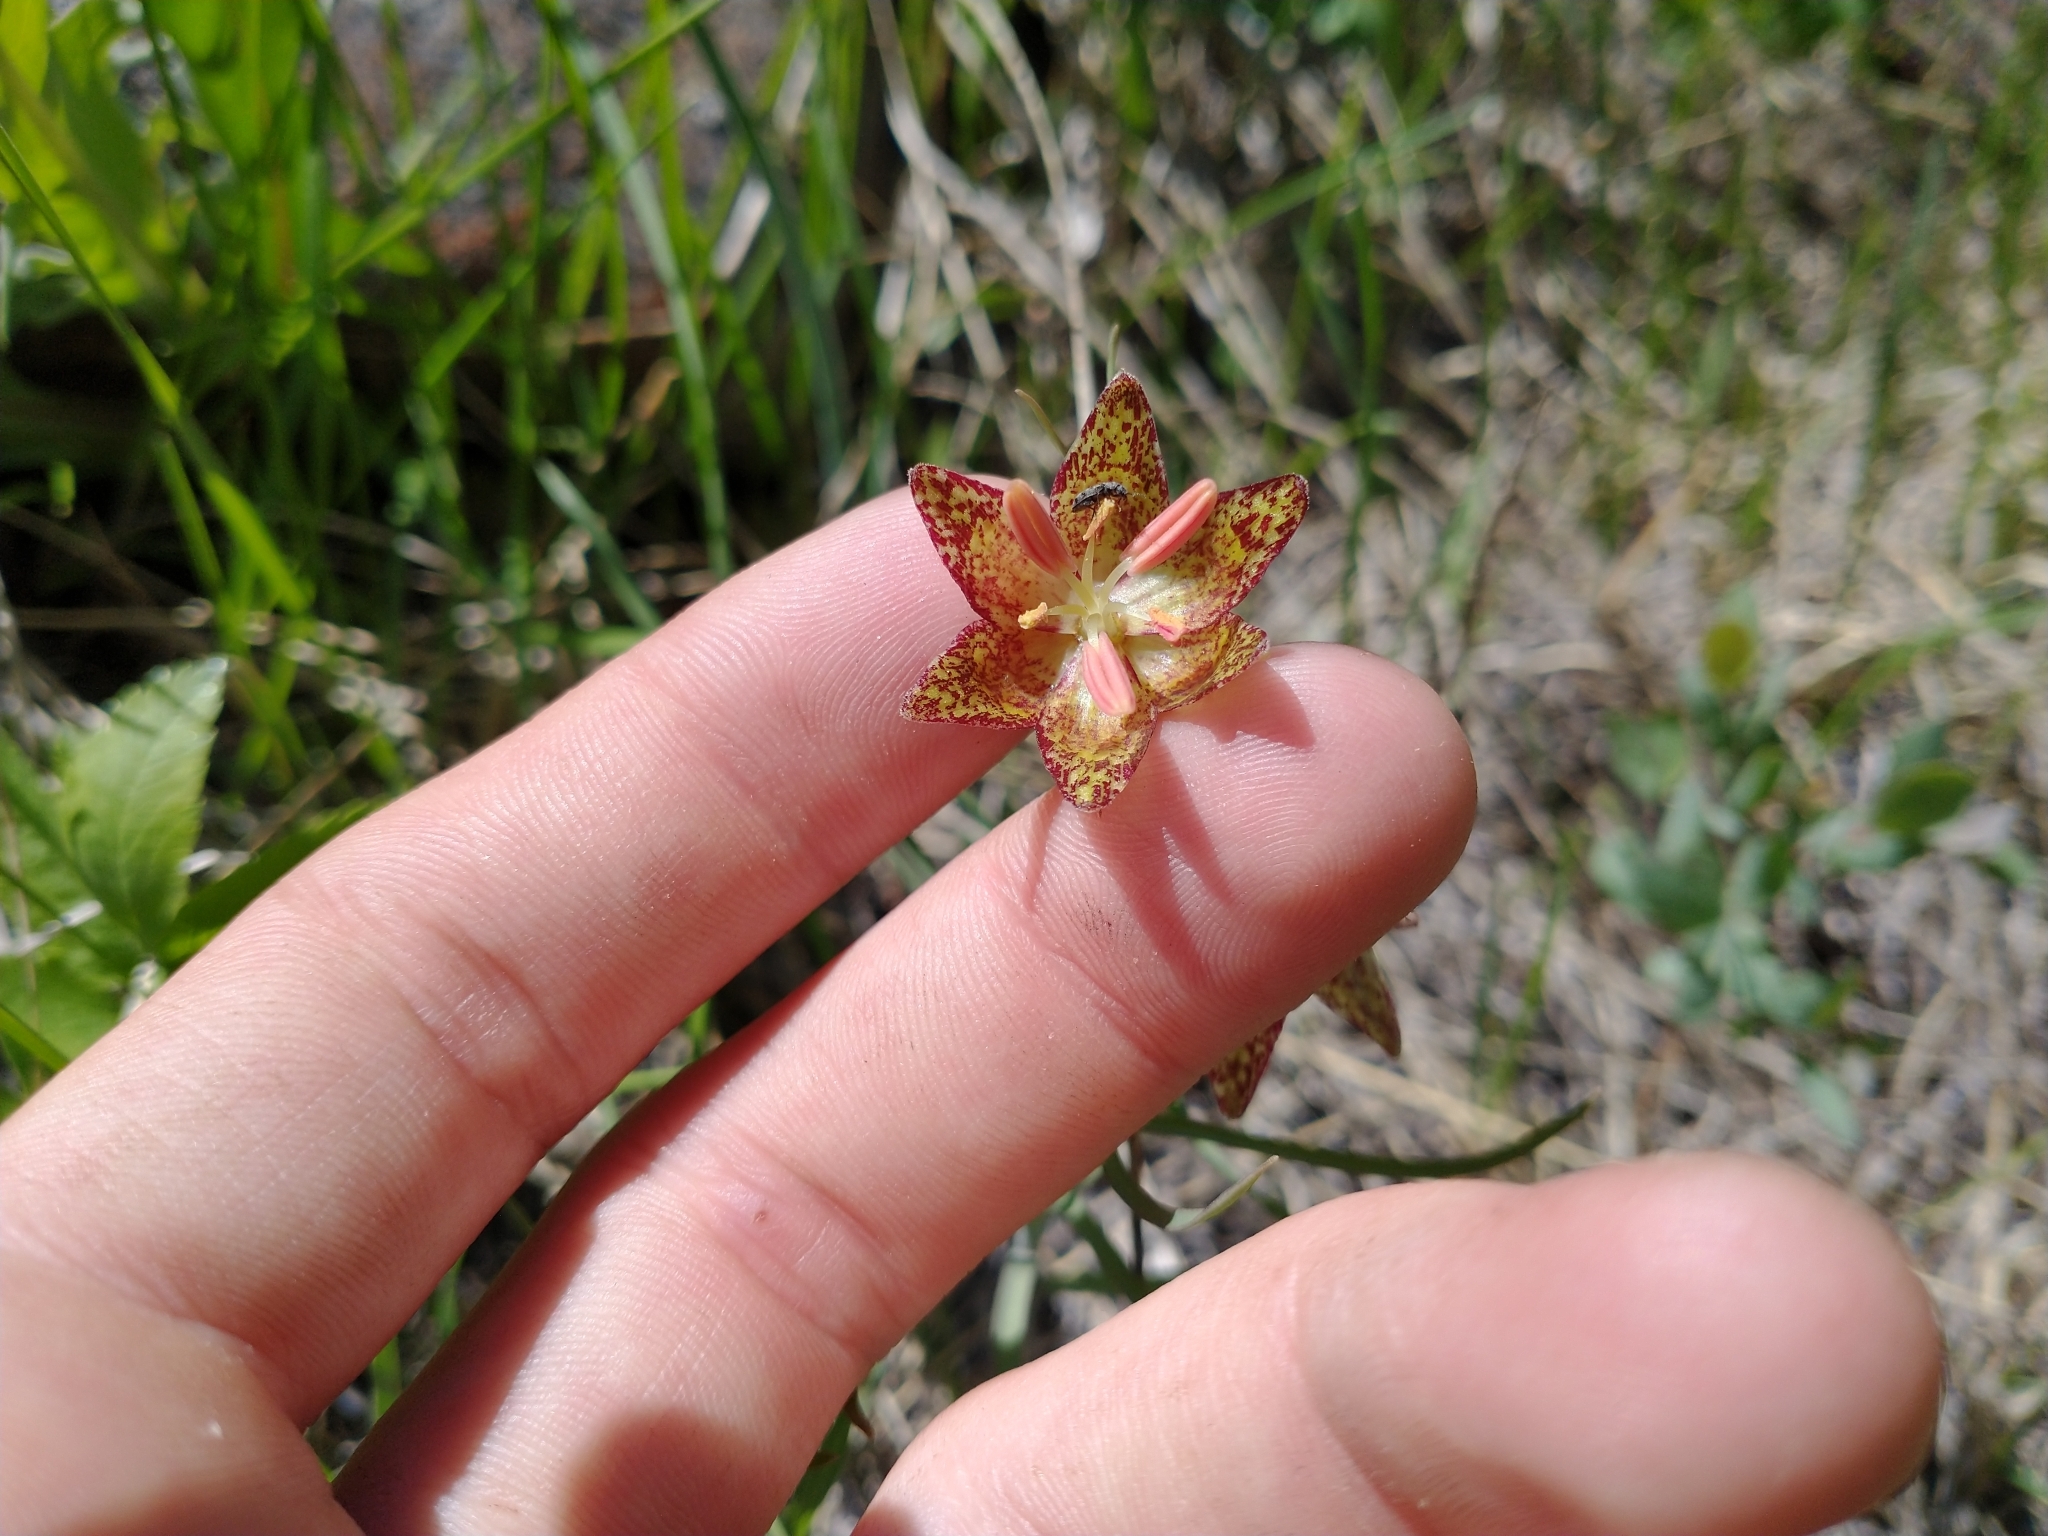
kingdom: Plantae
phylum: Tracheophyta
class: Liliopsida
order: Liliales
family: Liliaceae
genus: Fritillaria
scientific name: Fritillaria atropurpurea
